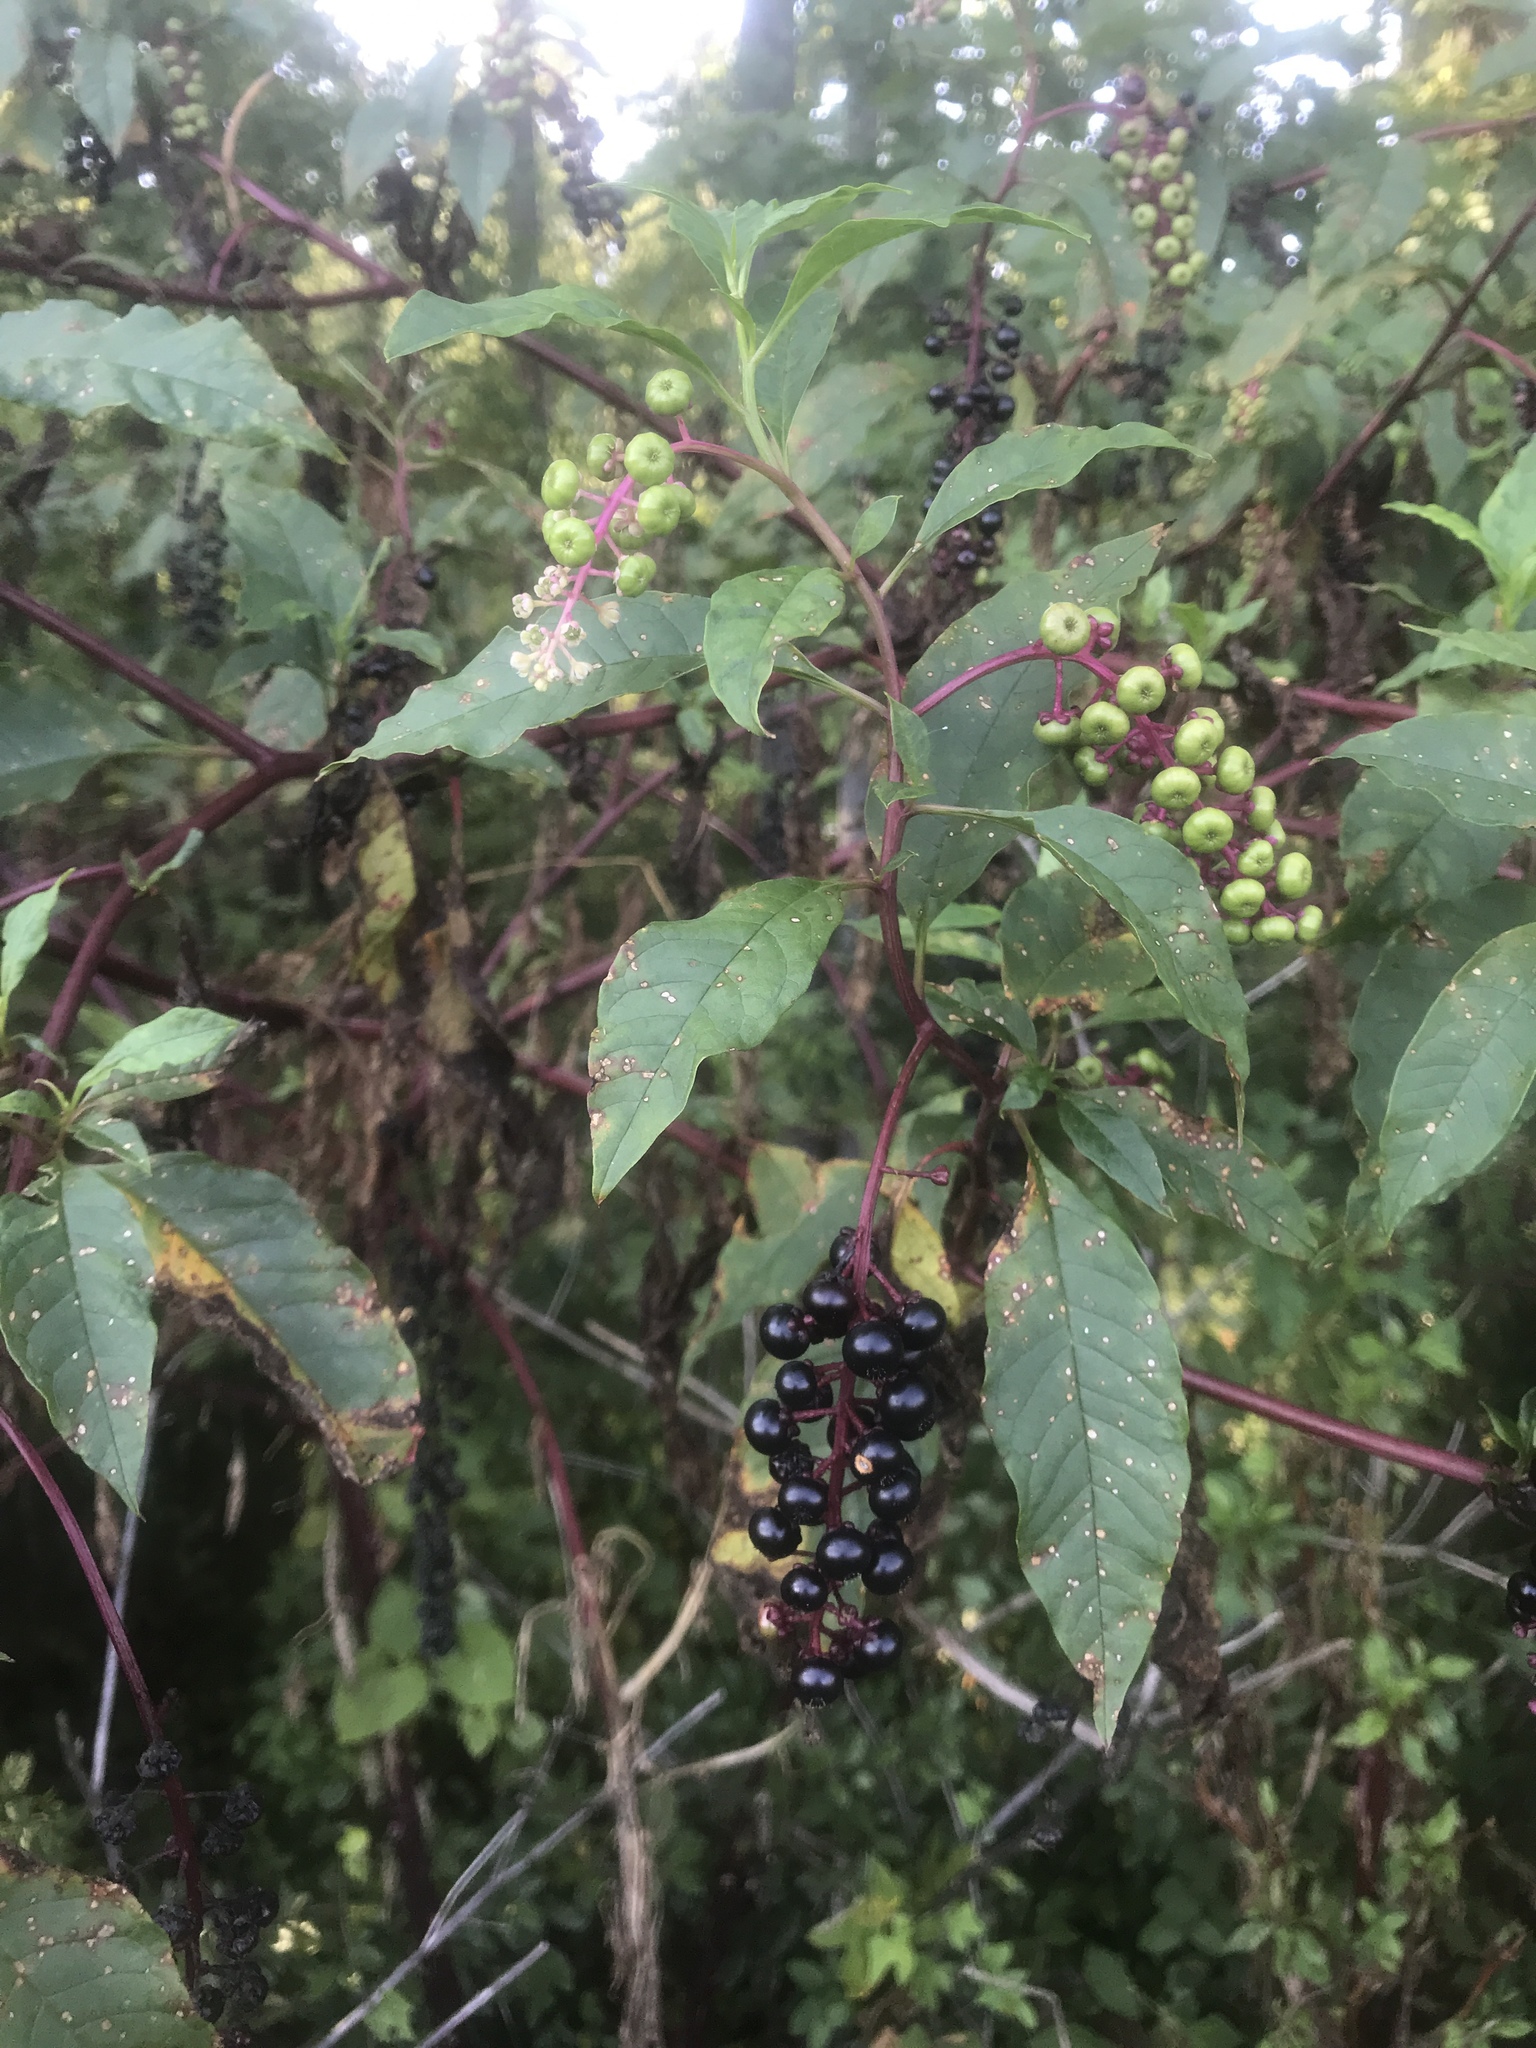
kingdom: Plantae
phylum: Tracheophyta
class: Magnoliopsida
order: Caryophyllales
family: Phytolaccaceae
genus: Phytolacca
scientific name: Phytolacca americana
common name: American pokeweed
